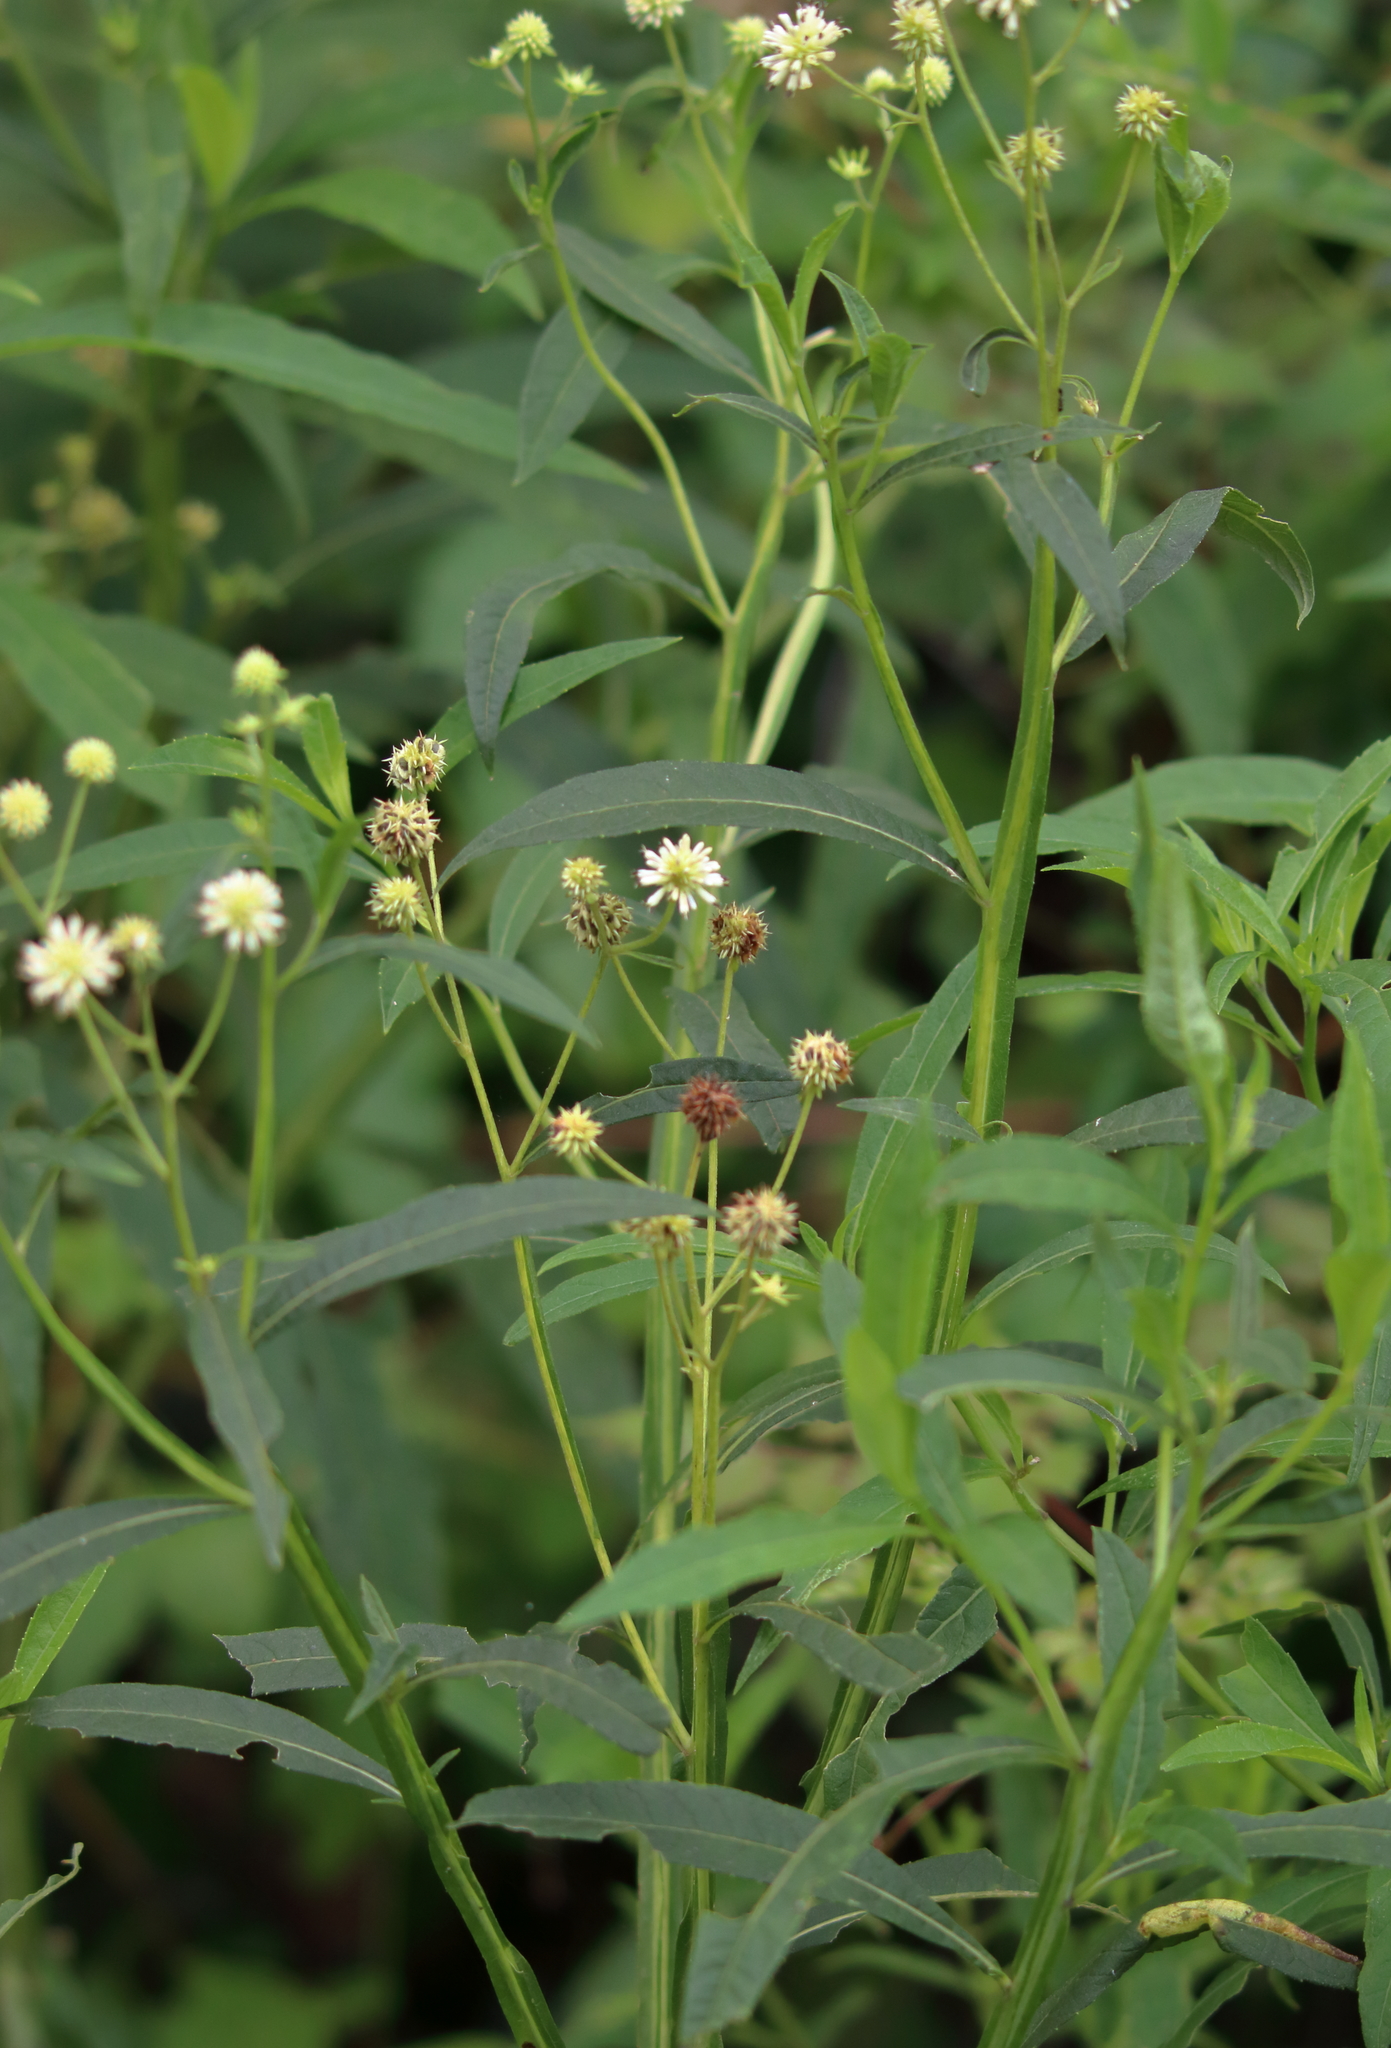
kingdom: Plantae
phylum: Tracheophyta
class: Magnoliopsida
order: Asterales
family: Asteraceae
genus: Verbesina
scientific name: Verbesina walteri
